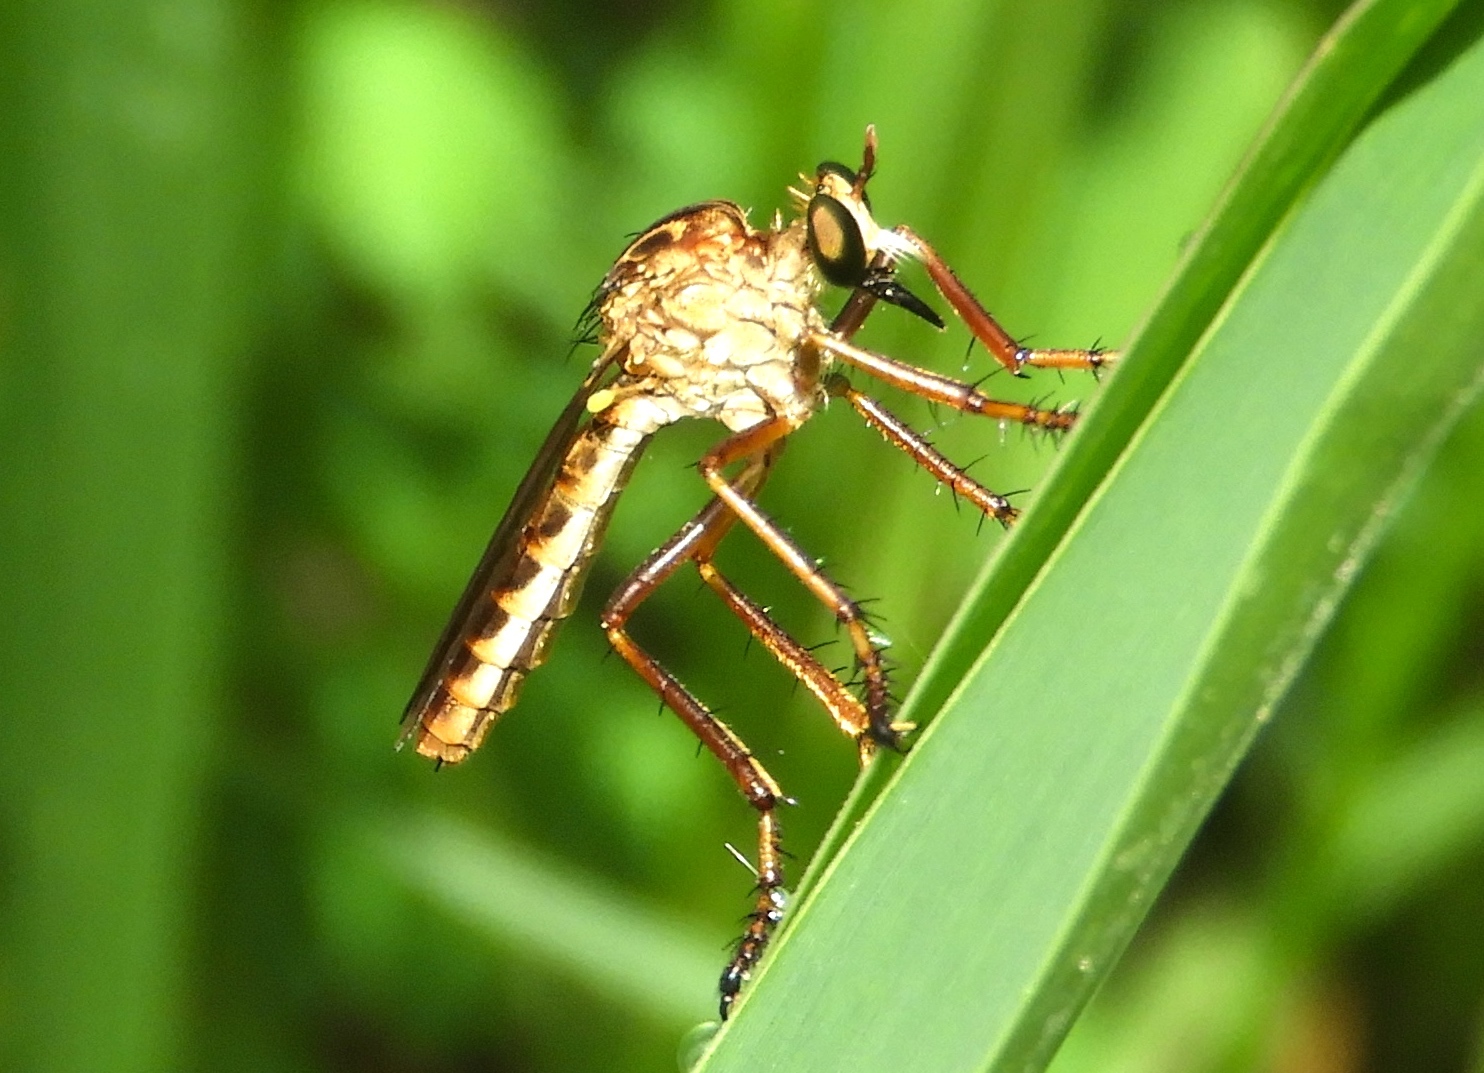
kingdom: Animalia
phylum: Arthropoda
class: Insecta
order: Diptera
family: Asilidae
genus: Diogmites
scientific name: Diogmites
